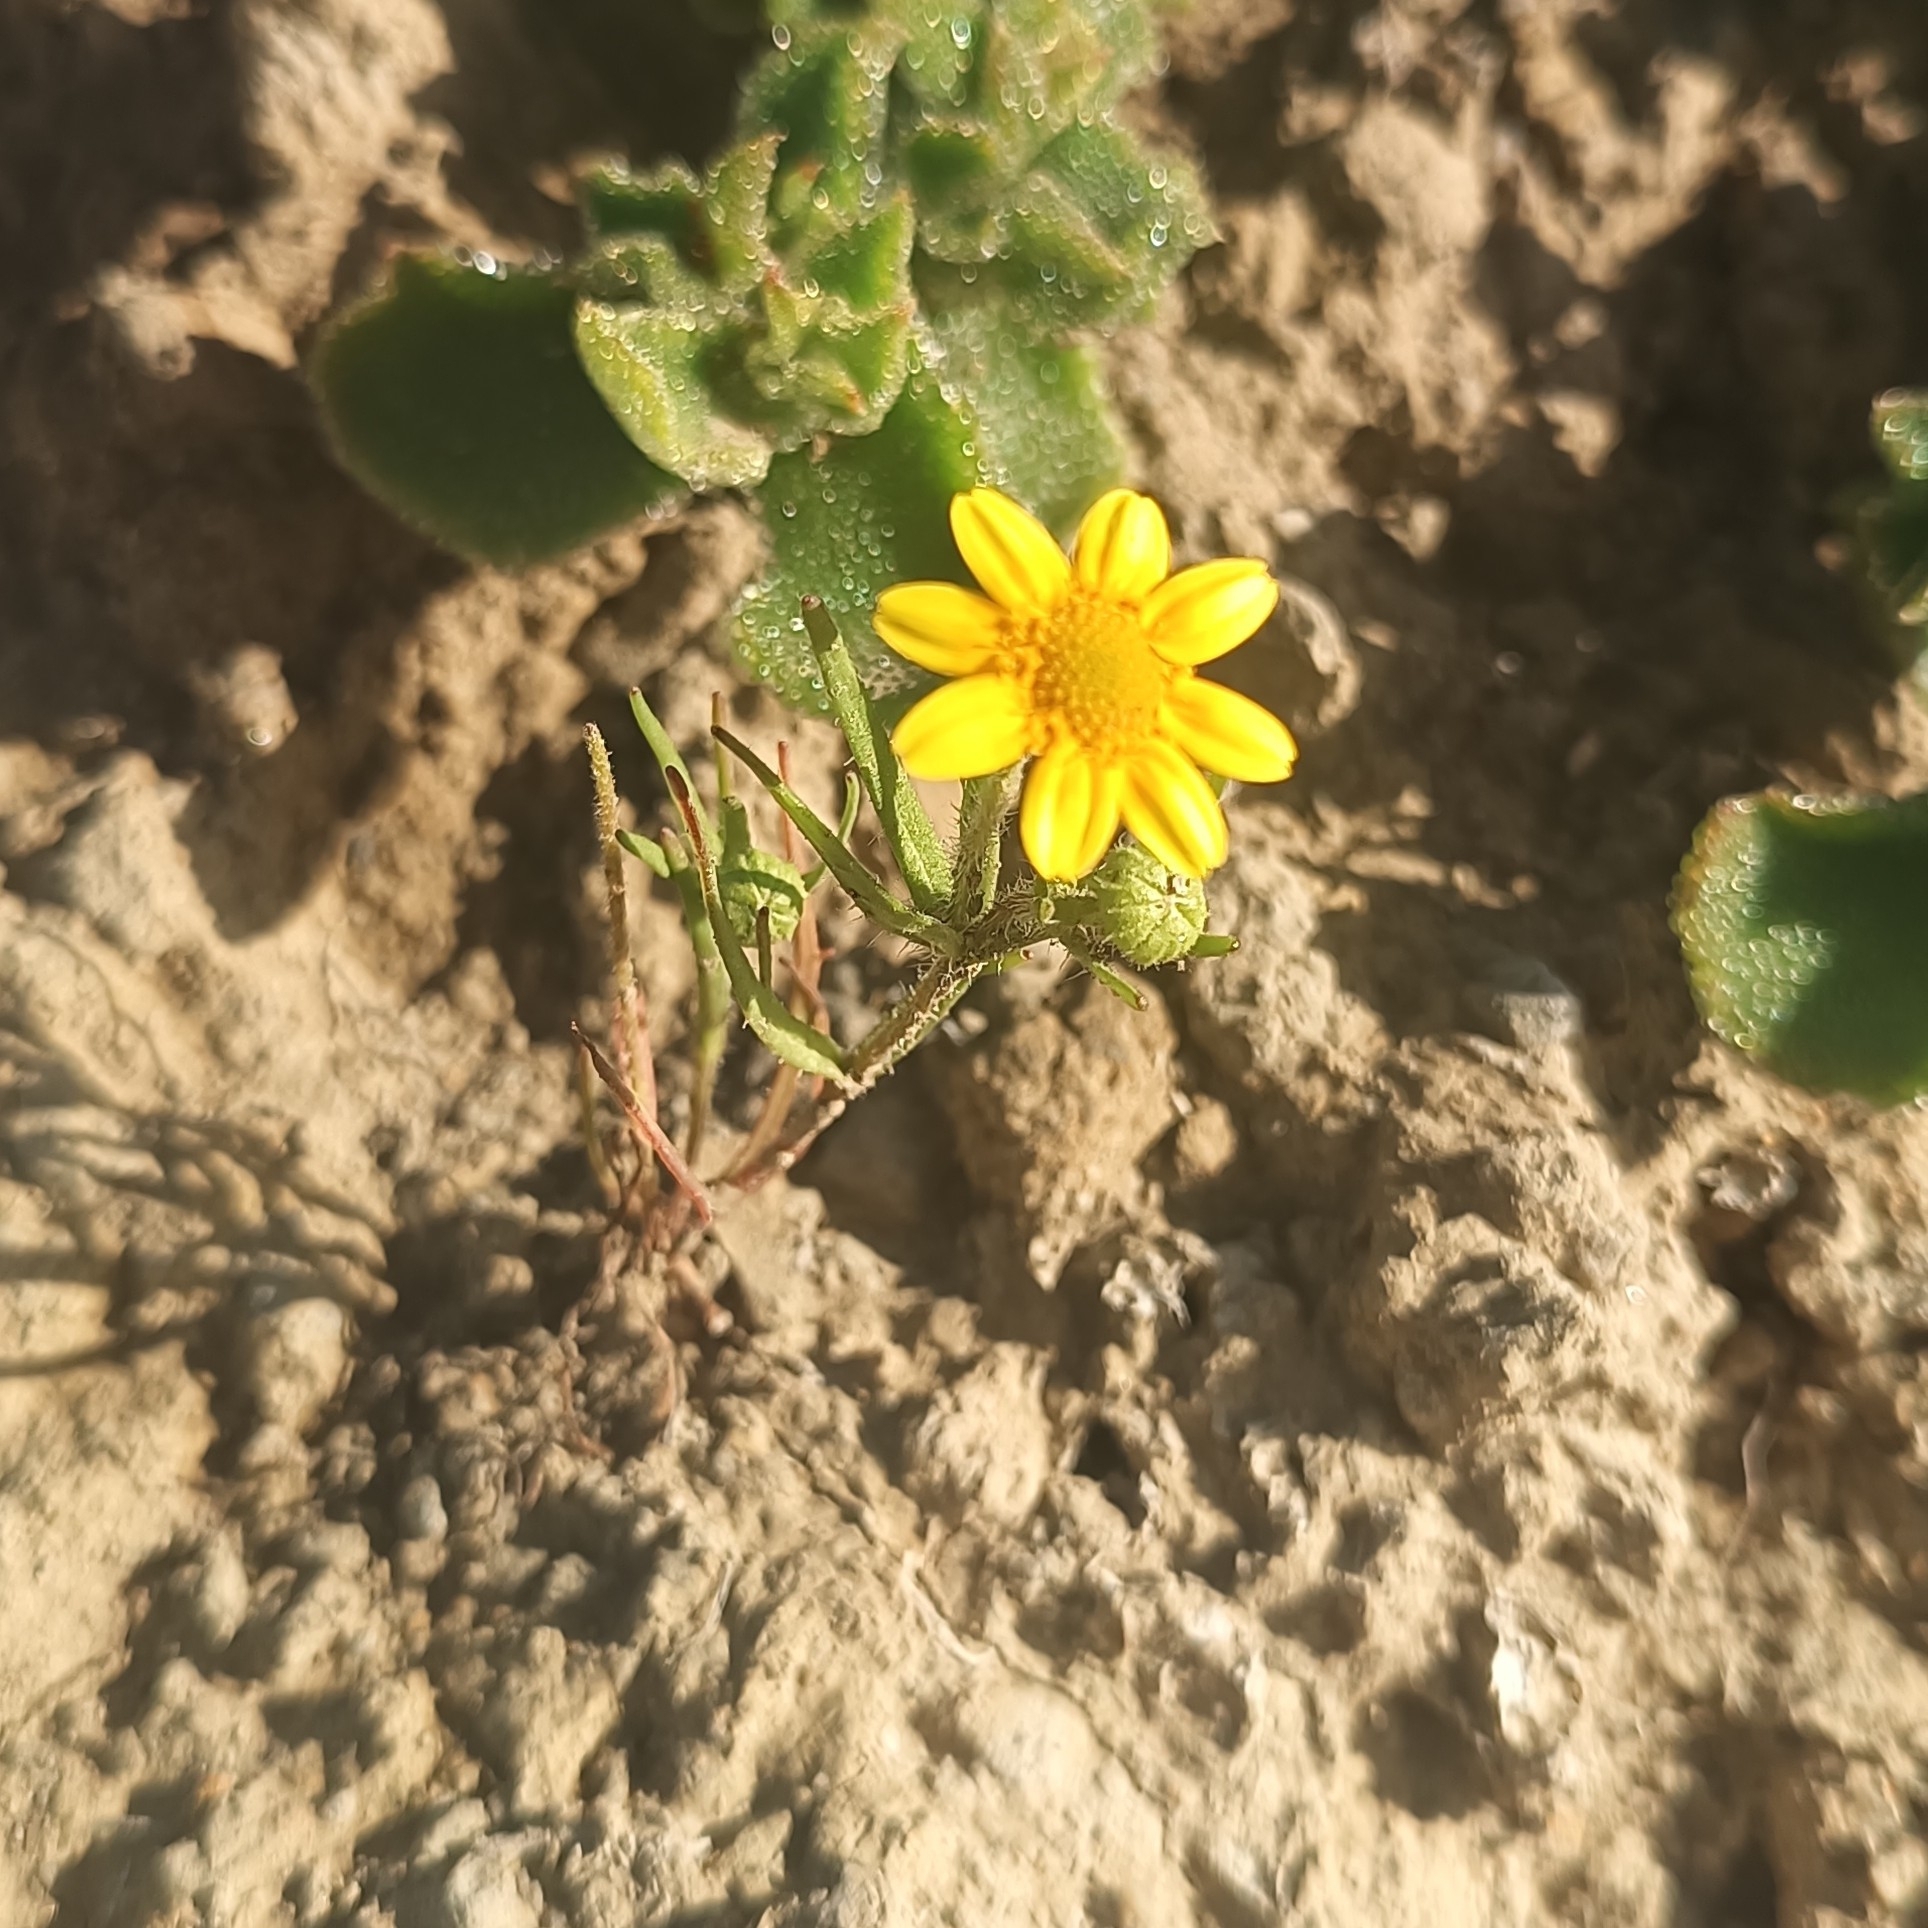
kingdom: Plantae
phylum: Tracheophyta
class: Magnoliopsida
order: Asterales
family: Asteraceae
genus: Lasthenia
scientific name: Lasthenia gracilis
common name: Common goldfields
